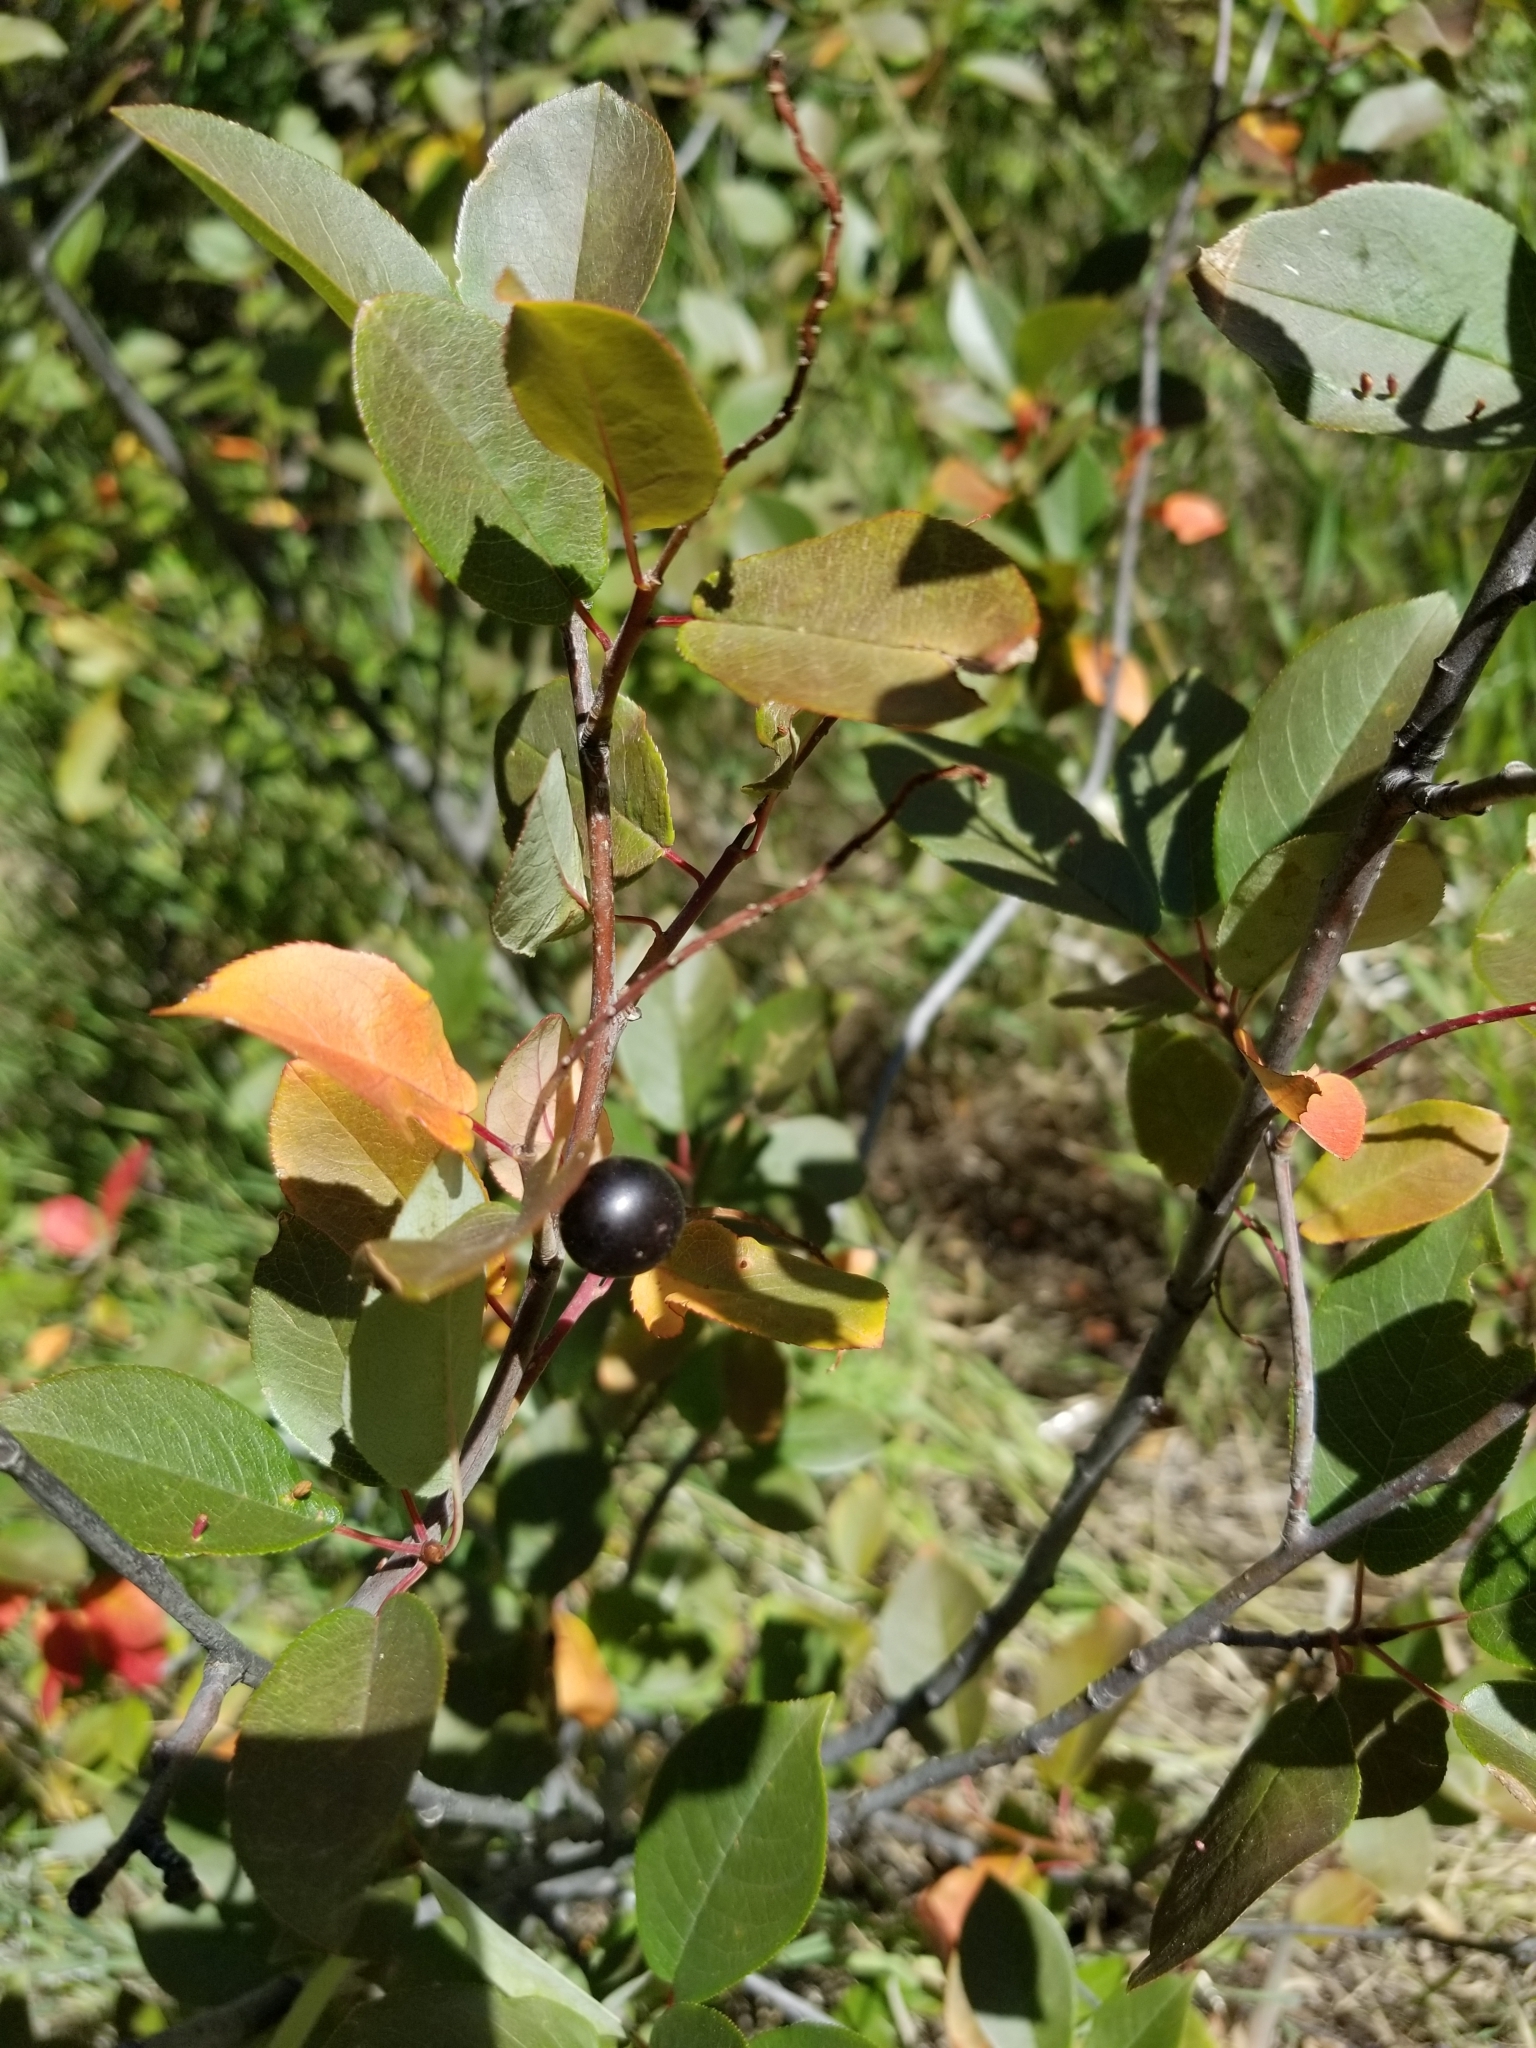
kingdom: Plantae
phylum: Tracheophyta
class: Magnoliopsida
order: Rosales
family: Rosaceae
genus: Prunus
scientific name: Prunus virginiana
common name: Chokecherry
